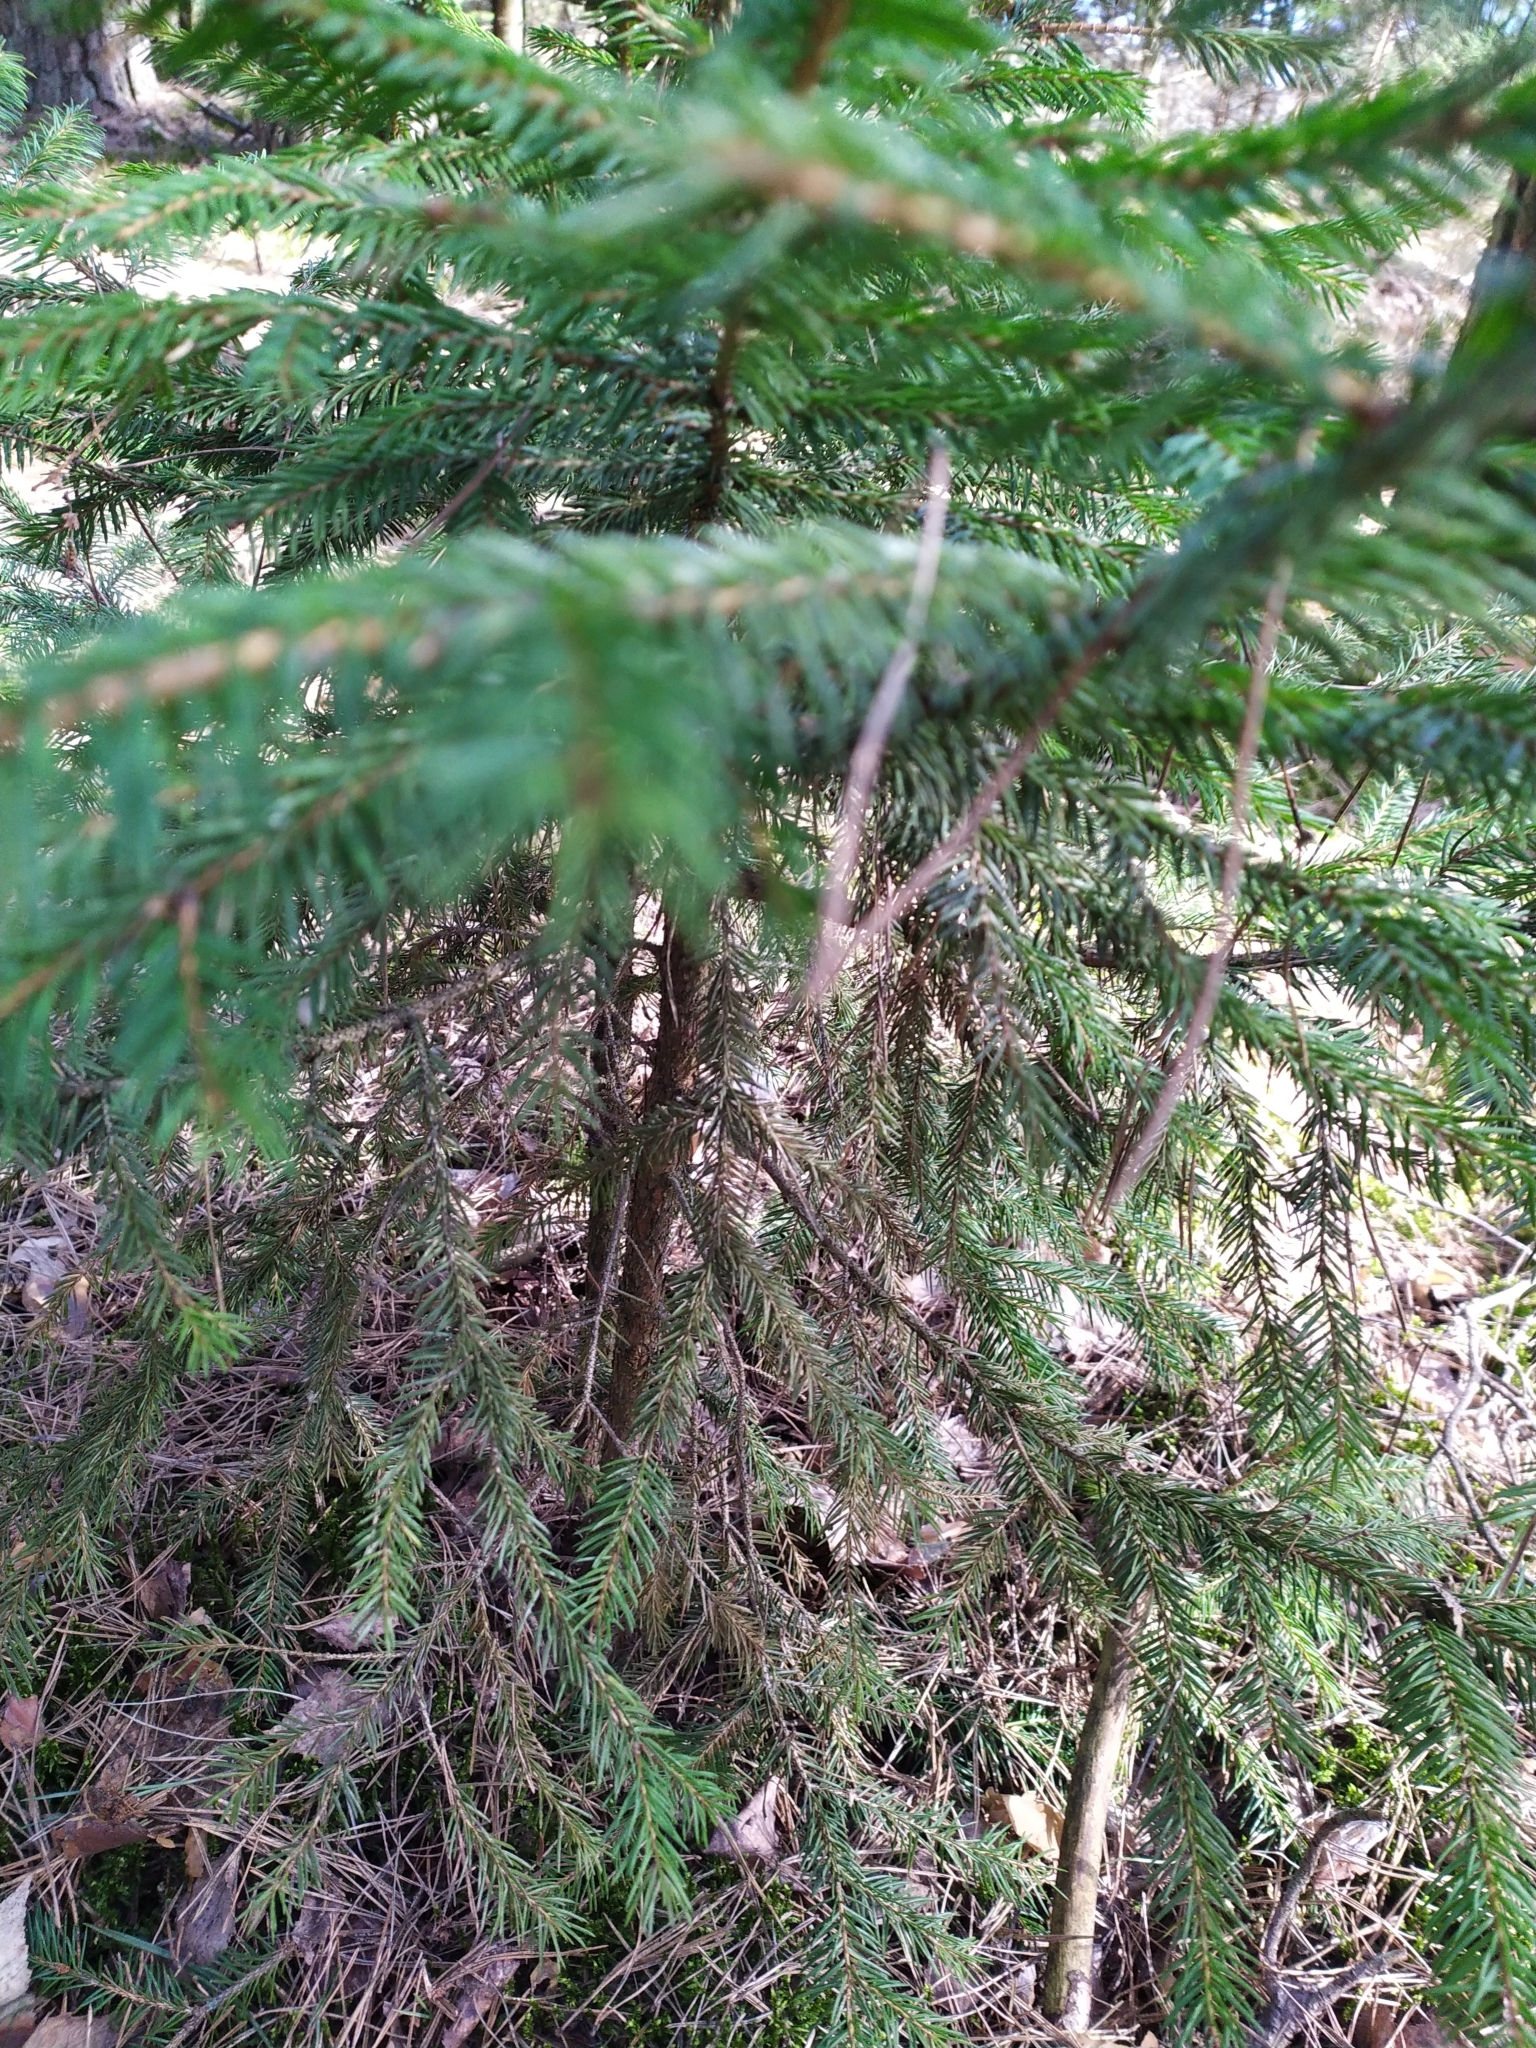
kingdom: Plantae
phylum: Tracheophyta
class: Pinopsida
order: Pinales
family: Pinaceae
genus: Picea
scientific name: Picea abies
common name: Norway spruce
